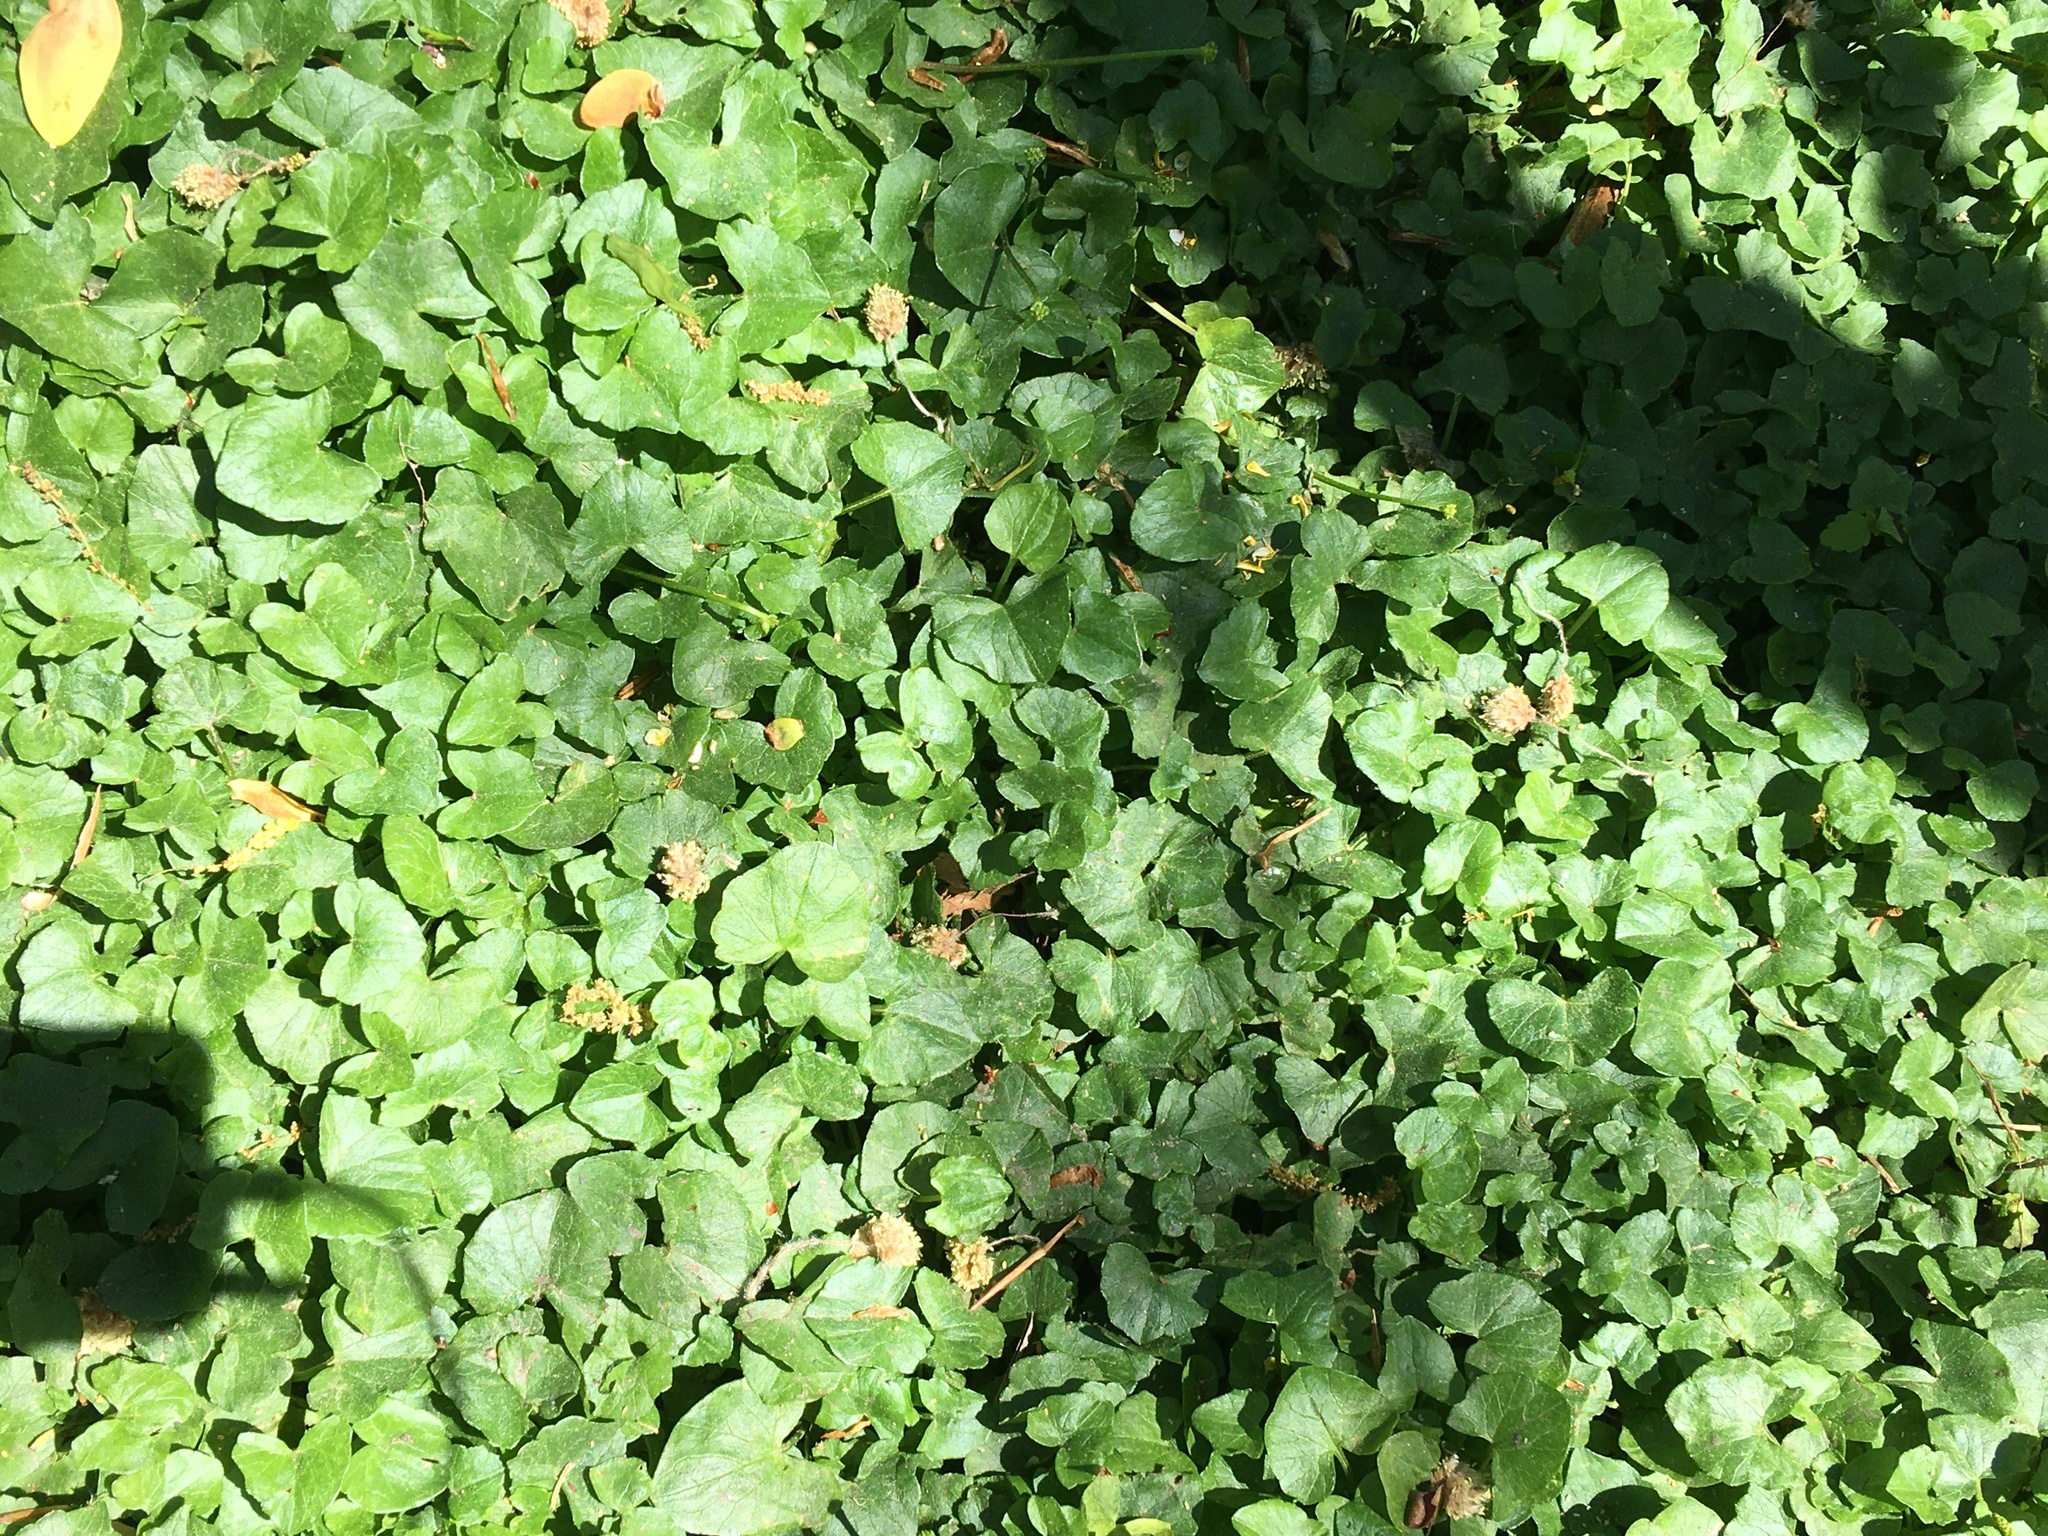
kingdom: Plantae
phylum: Tracheophyta
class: Magnoliopsida
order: Ranunculales
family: Ranunculaceae
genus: Ficaria
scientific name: Ficaria verna
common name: Lesser celandine
